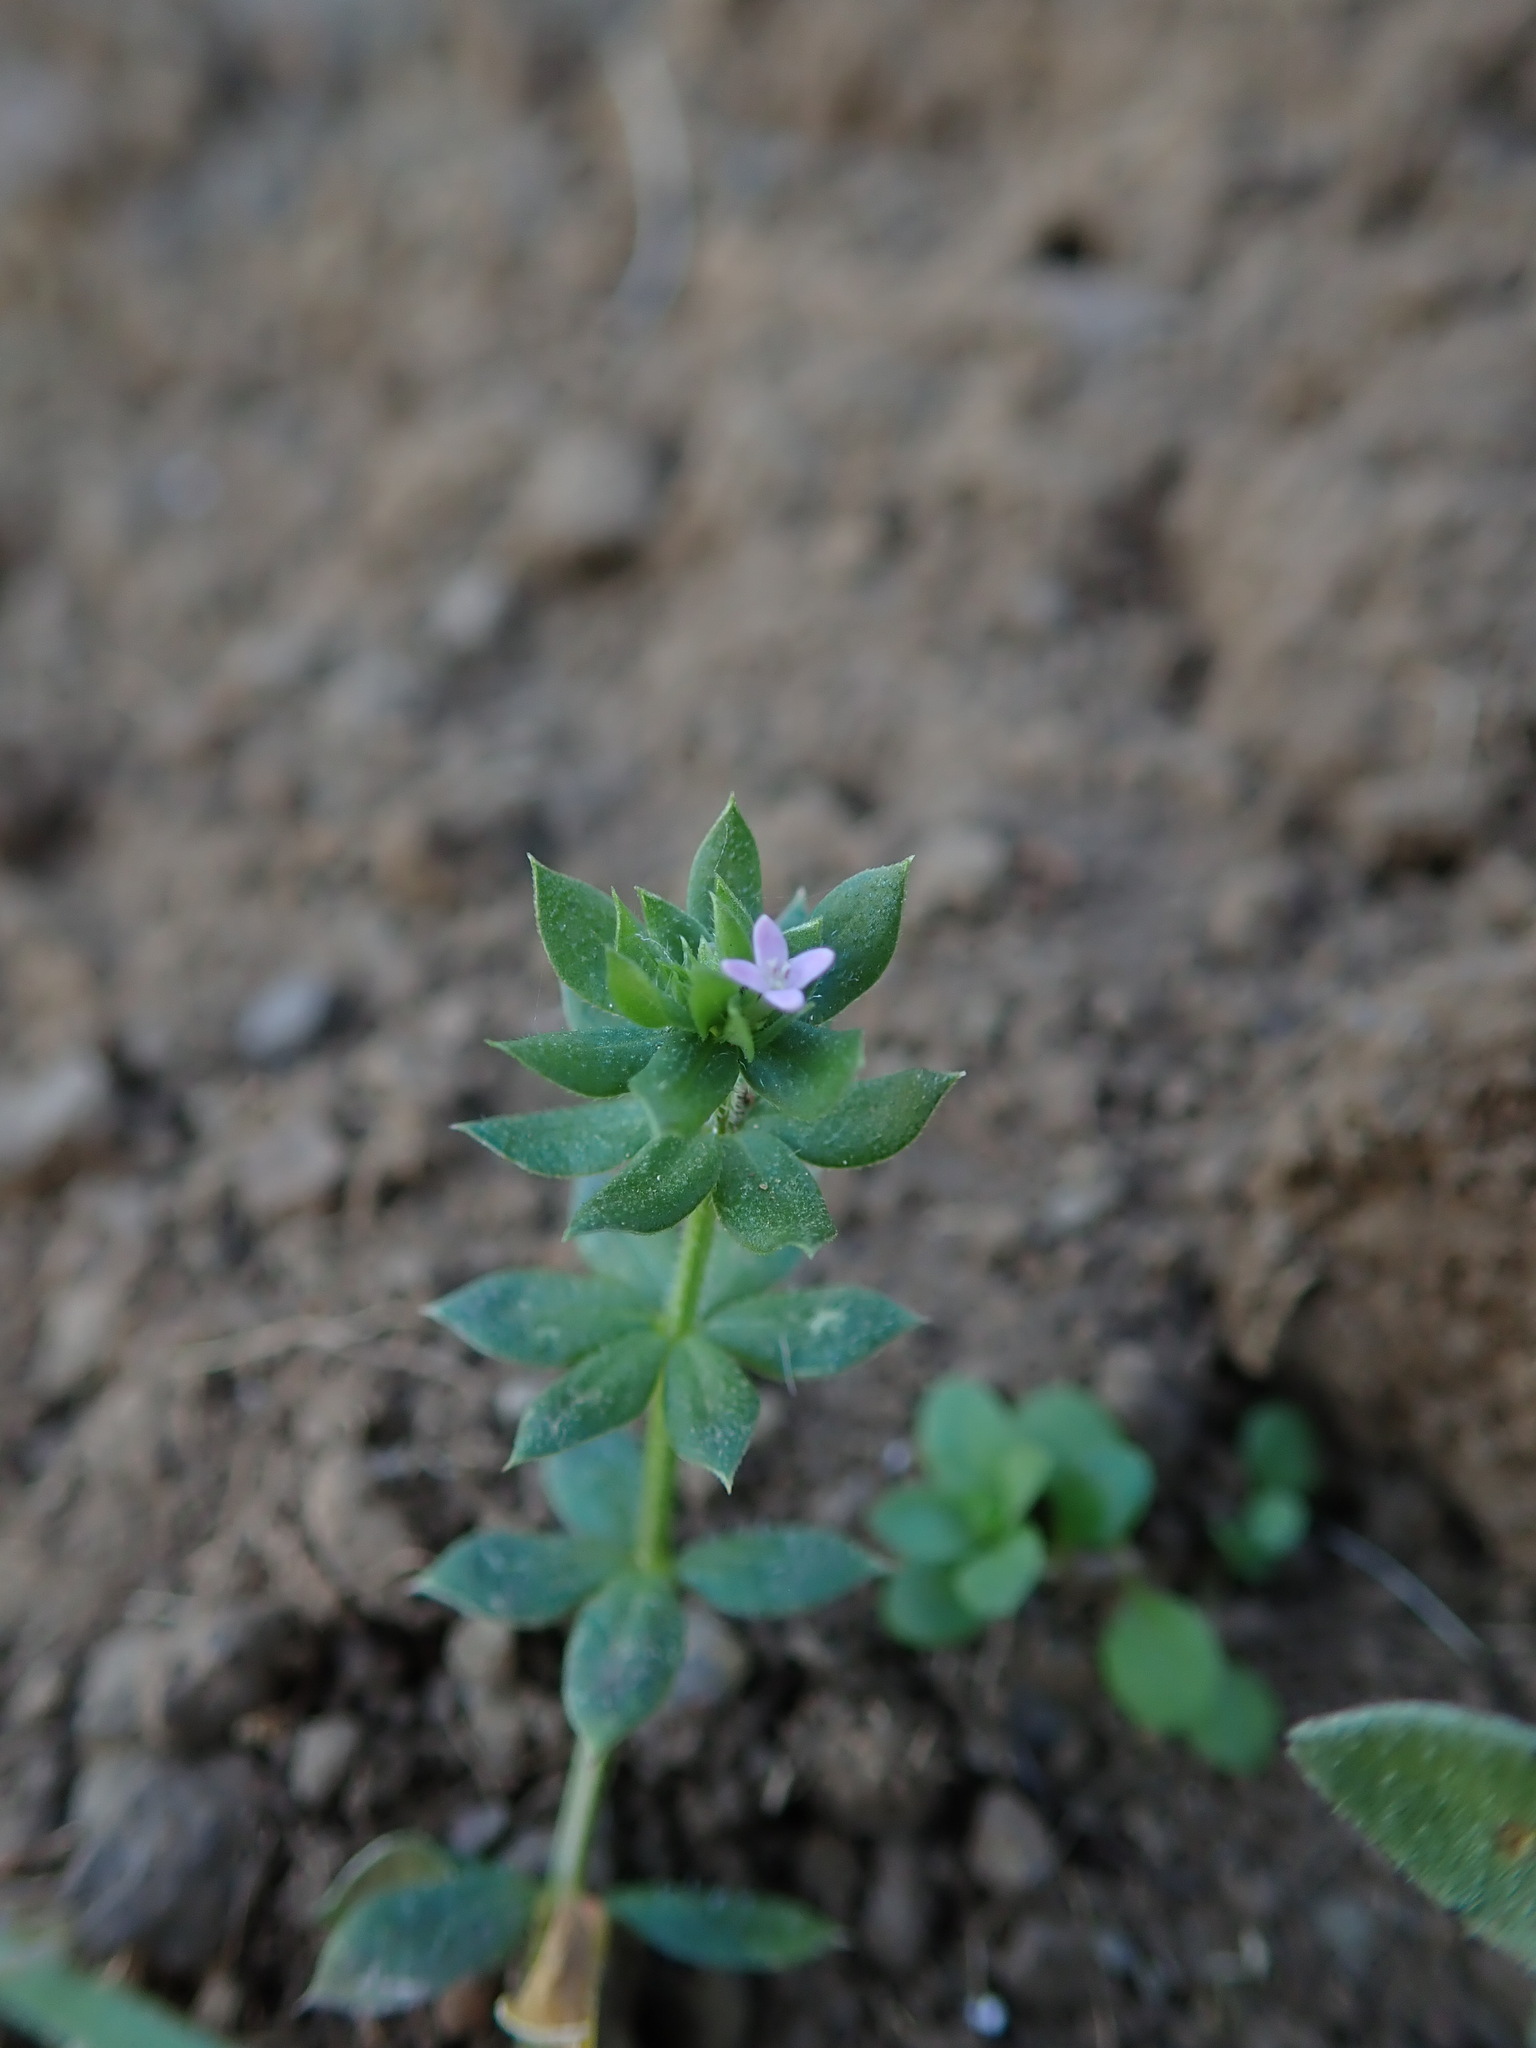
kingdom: Plantae
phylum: Tracheophyta
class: Magnoliopsida
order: Gentianales
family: Rubiaceae
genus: Sherardia
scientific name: Sherardia arvensis
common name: Field madder
